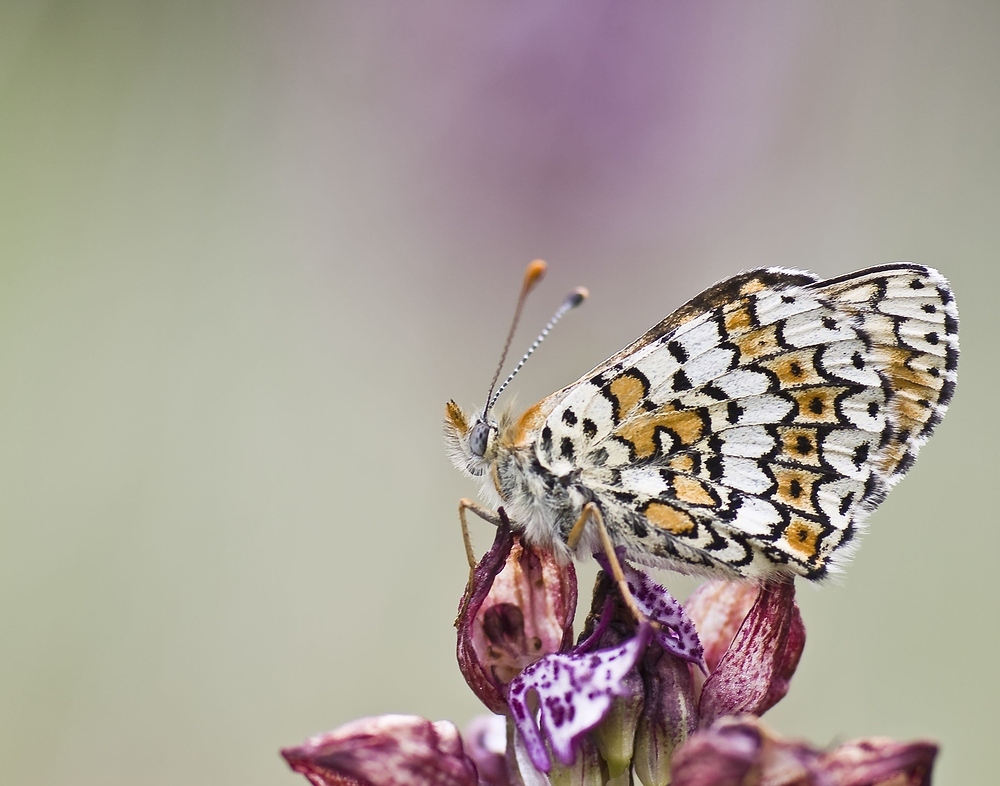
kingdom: Animalia
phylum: Arthropoda
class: Insecta
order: Lepidoptera
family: Nymphalidae
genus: Melitaea
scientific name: Melitaea cinxia
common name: Glanville fritillary
